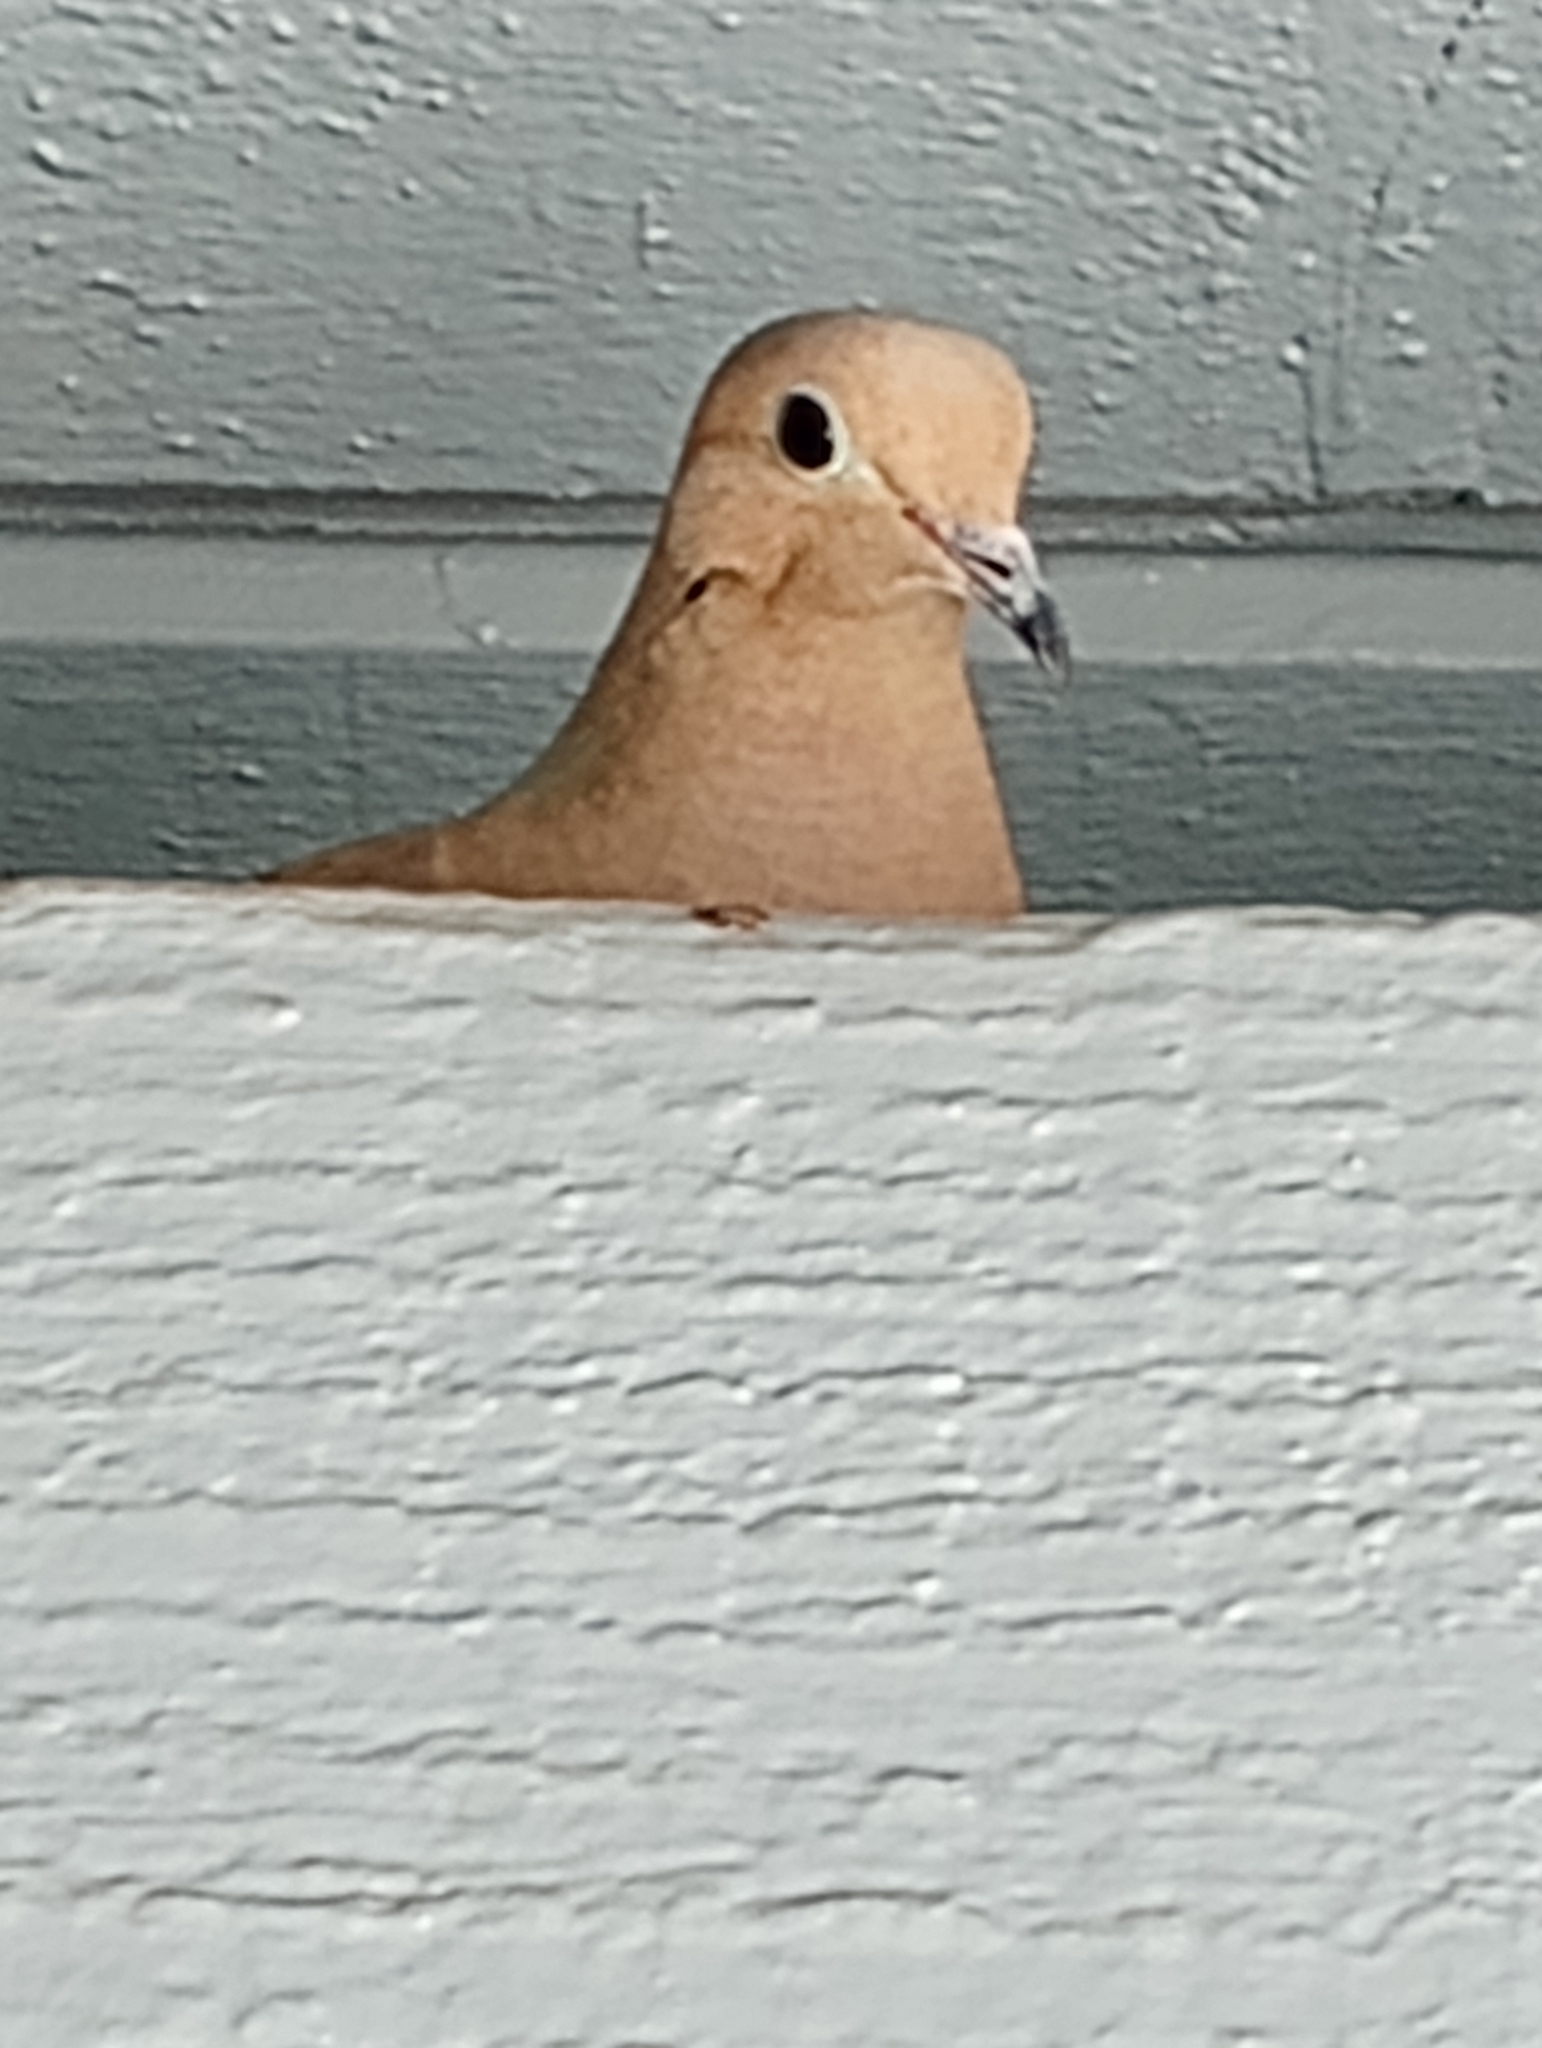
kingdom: Animalia
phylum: Chordata
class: Aves
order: Columbiformes
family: Columbidae
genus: Zenaida
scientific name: Zenaida macroura
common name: Mourning dove
